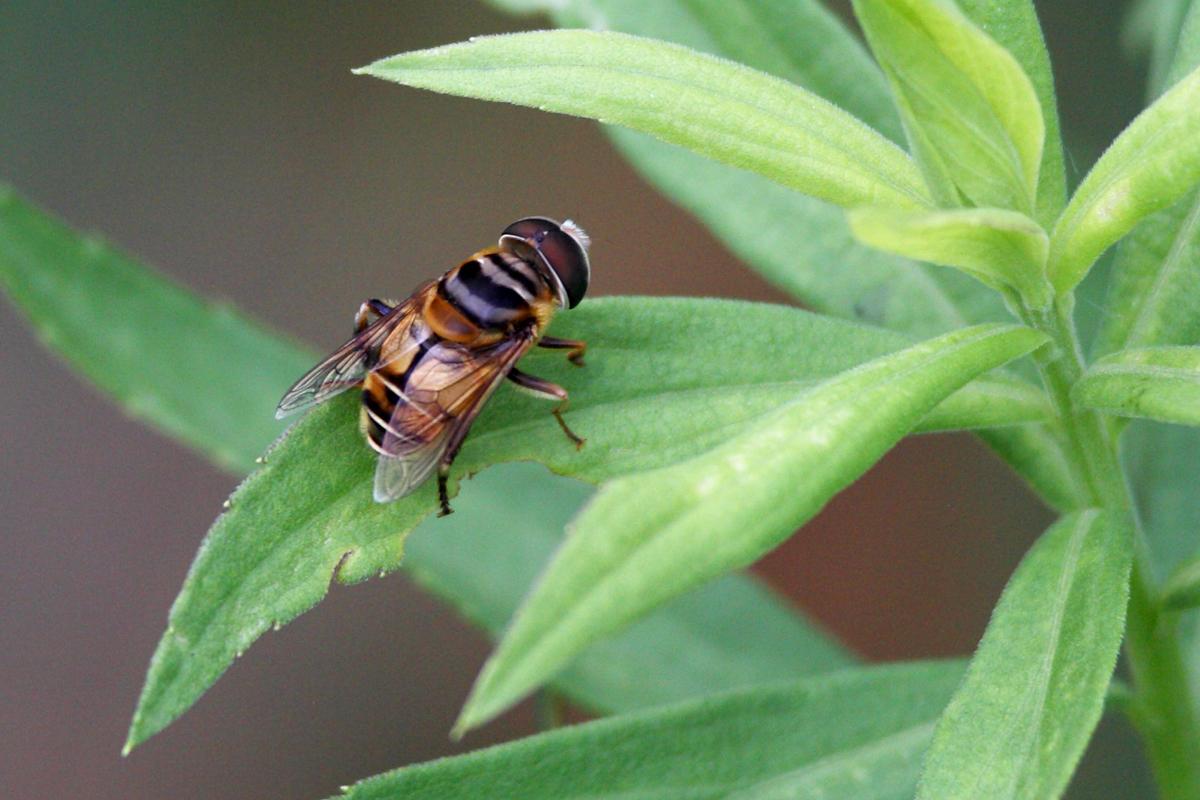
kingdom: Animalia
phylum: Arthropoda
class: Insecta
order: Diptera
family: Syrphidae
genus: Palpada
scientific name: Palpada vinetorum
